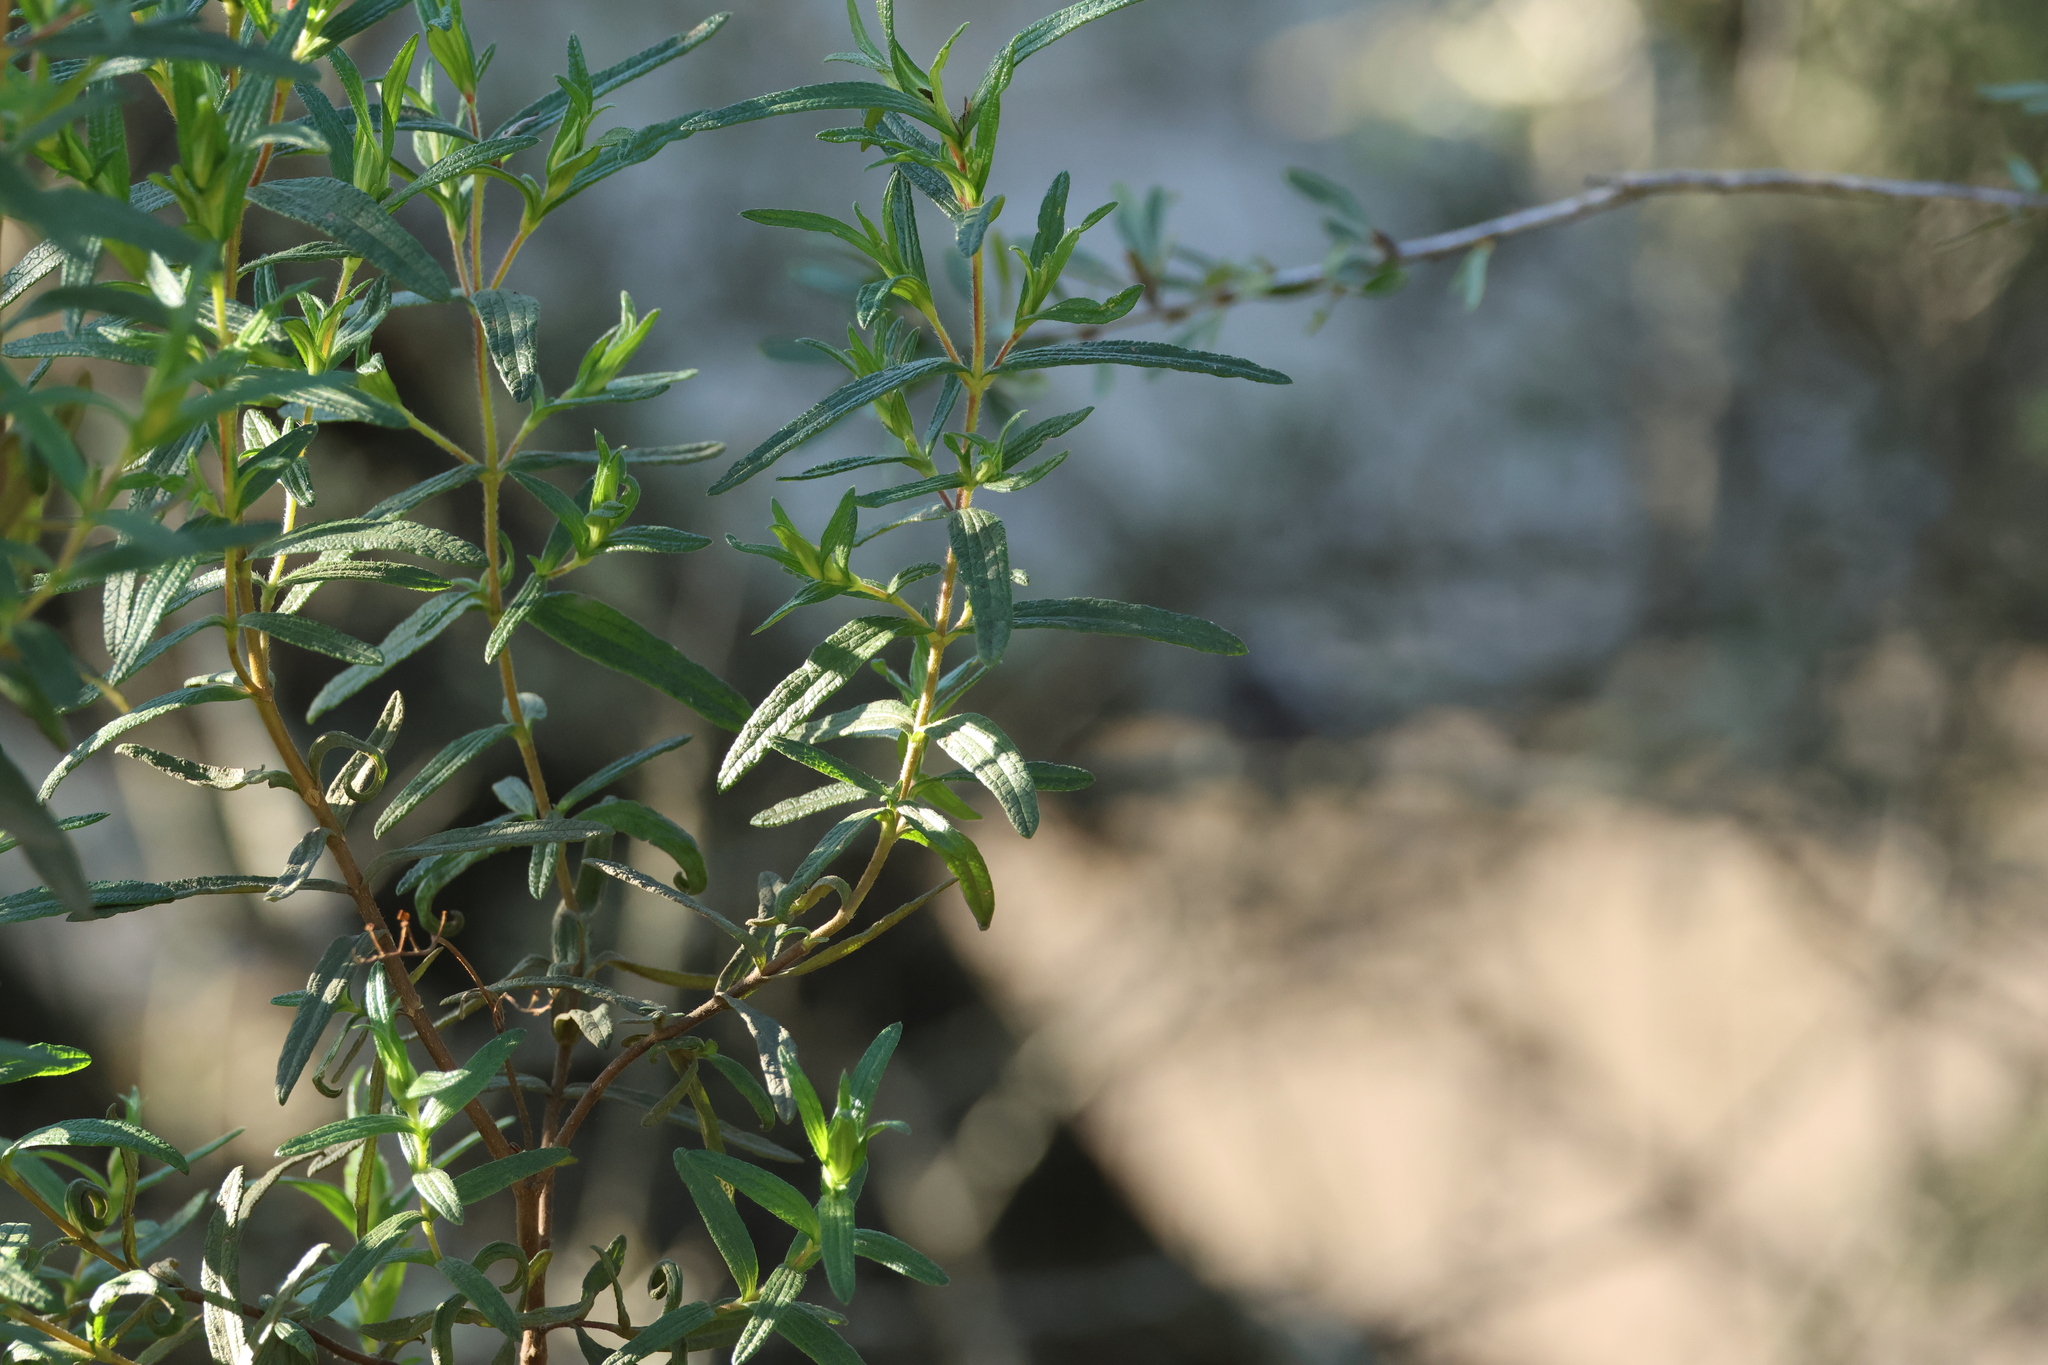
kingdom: Plantae
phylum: Tracheophyta
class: Magnoliopsida
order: Malvales
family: Cistaceae
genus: Cistus
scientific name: Cistus monspeliensis
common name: Montpelier cistus
